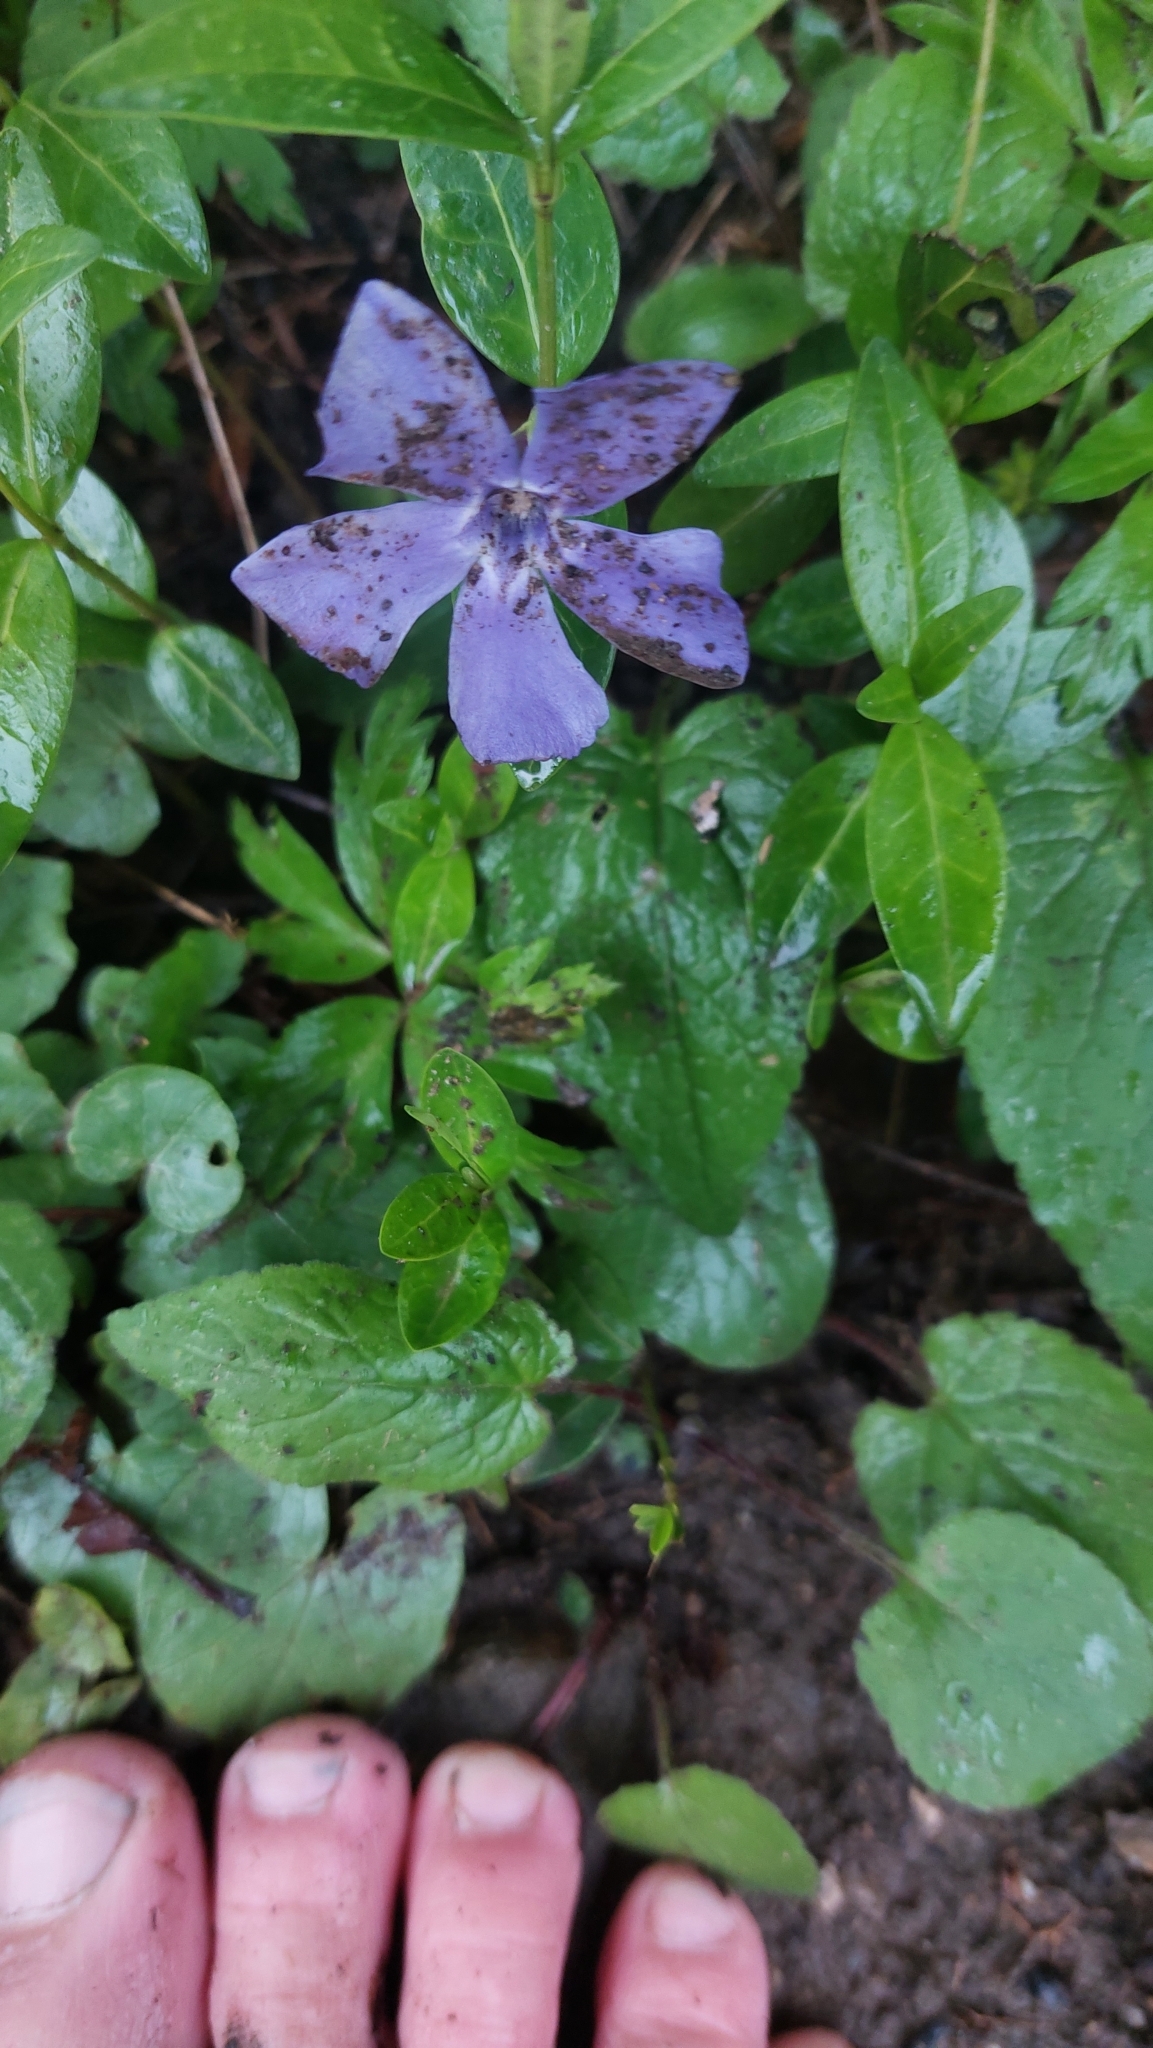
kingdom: Plantae
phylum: Tracheophyta
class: Magnoliopsida
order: Gentianales
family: Apocynaceae
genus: Vinca
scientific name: Vinca minor
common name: Lesser periwinkle
